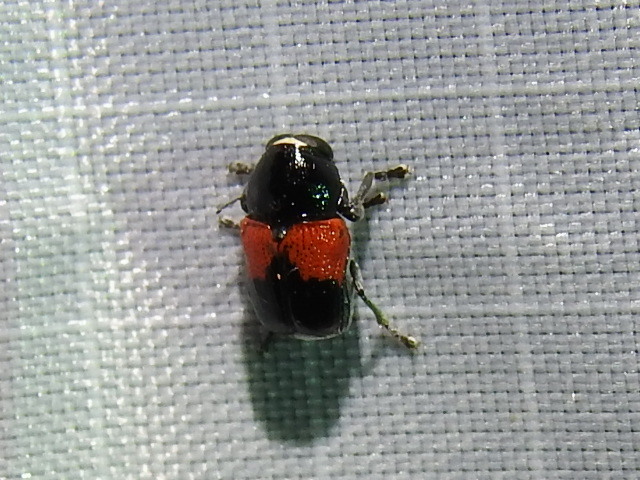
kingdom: Animalia
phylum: Arthropoda
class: Insecta
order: Coleoptera
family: Chrysomelidae
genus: Scelolyperus
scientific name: Scelolyperus lecontii
